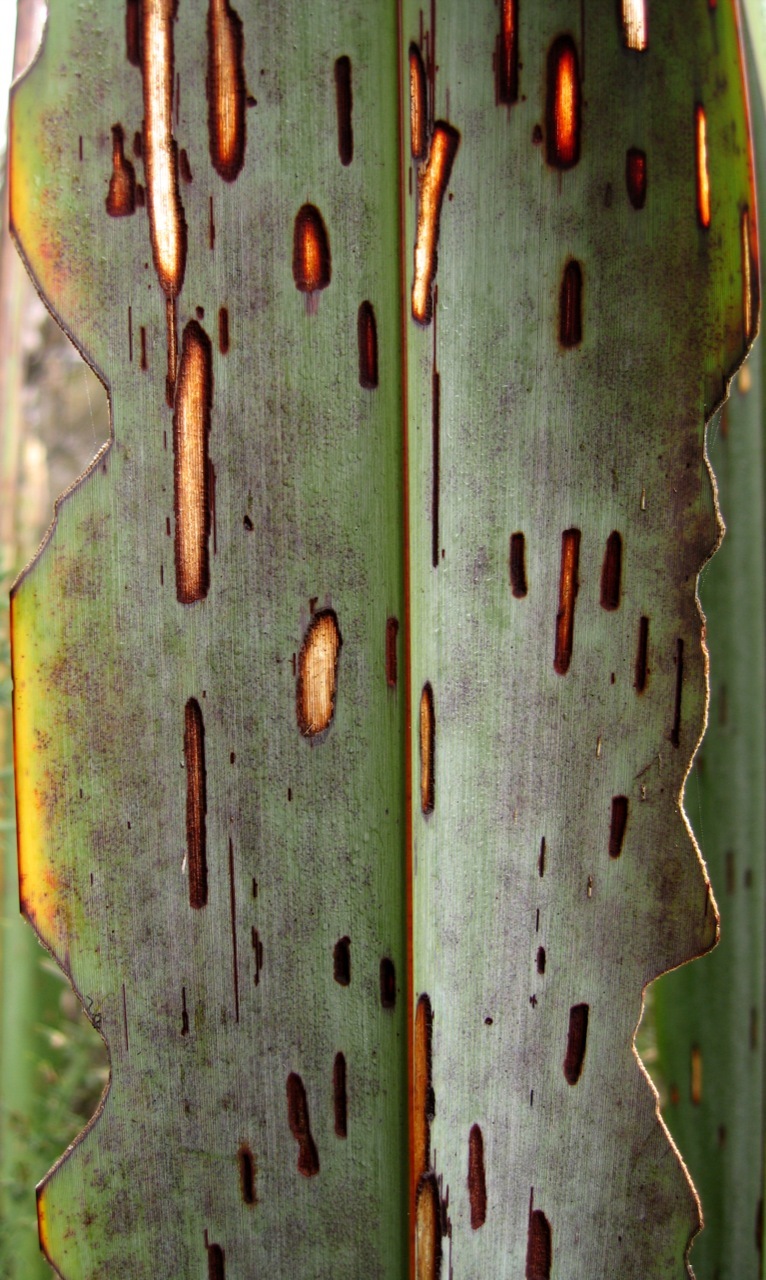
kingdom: Animalia
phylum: Arthropoda
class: Insecta
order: Lepidoptera
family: Geometridae
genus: Orthoclydon
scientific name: Orthoclydon praefectata
